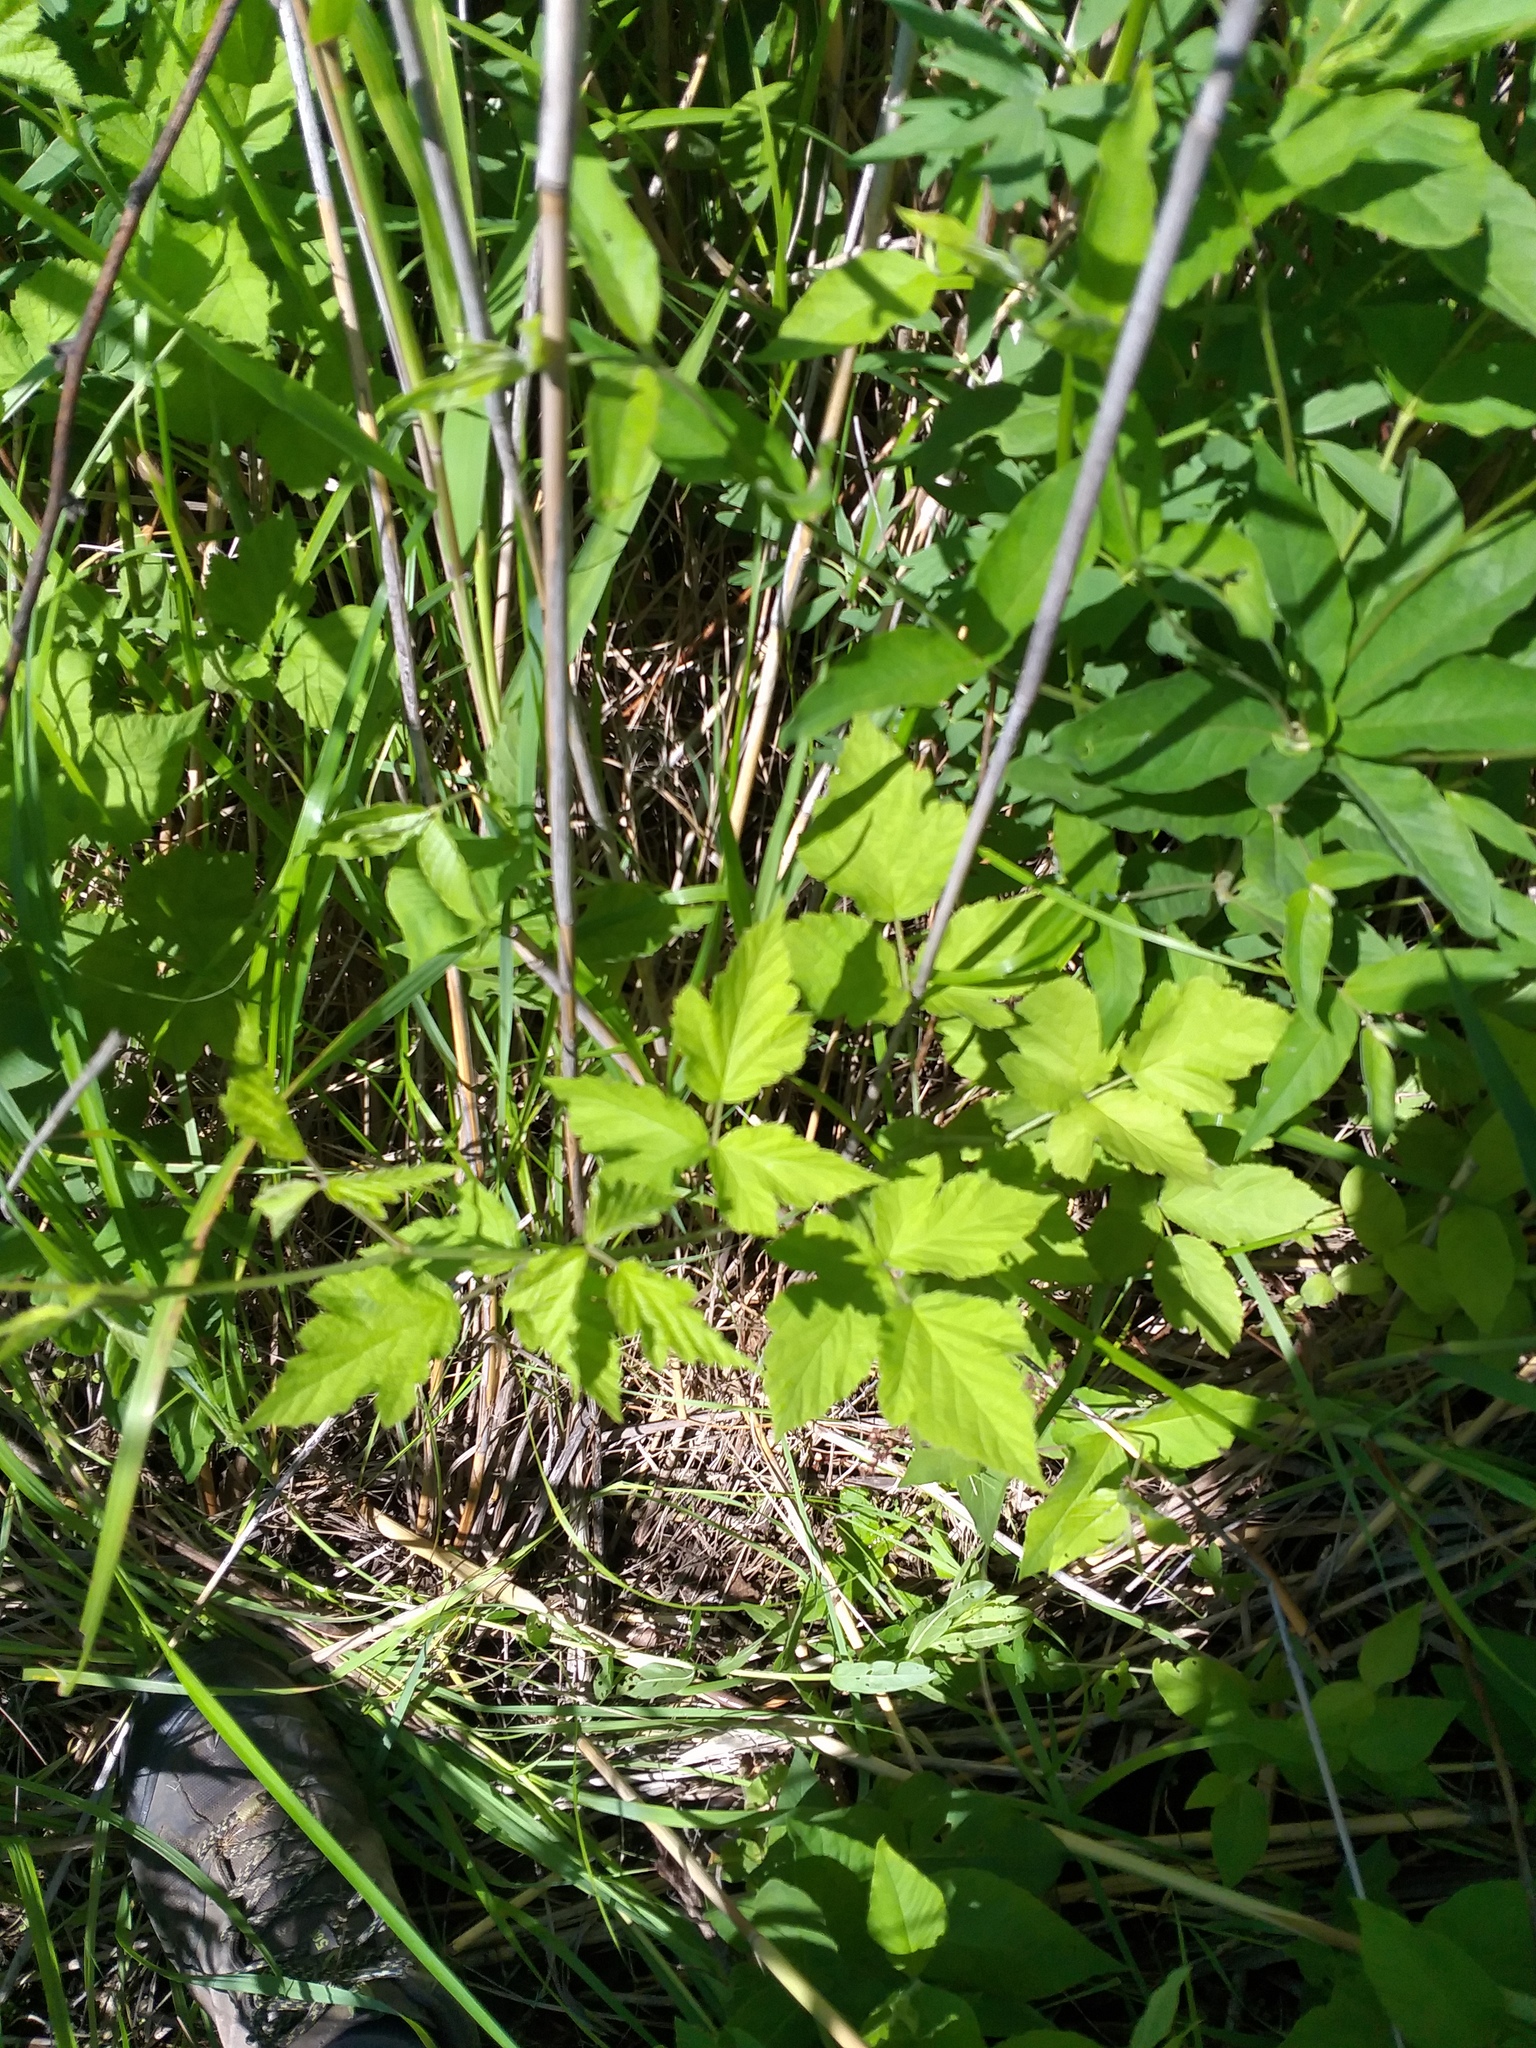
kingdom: Plantae
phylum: Tracheophyta
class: Magnoliopsida
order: Rosales
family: Rosaceae
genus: Rubus
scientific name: Rubus caesius
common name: Dewberry
